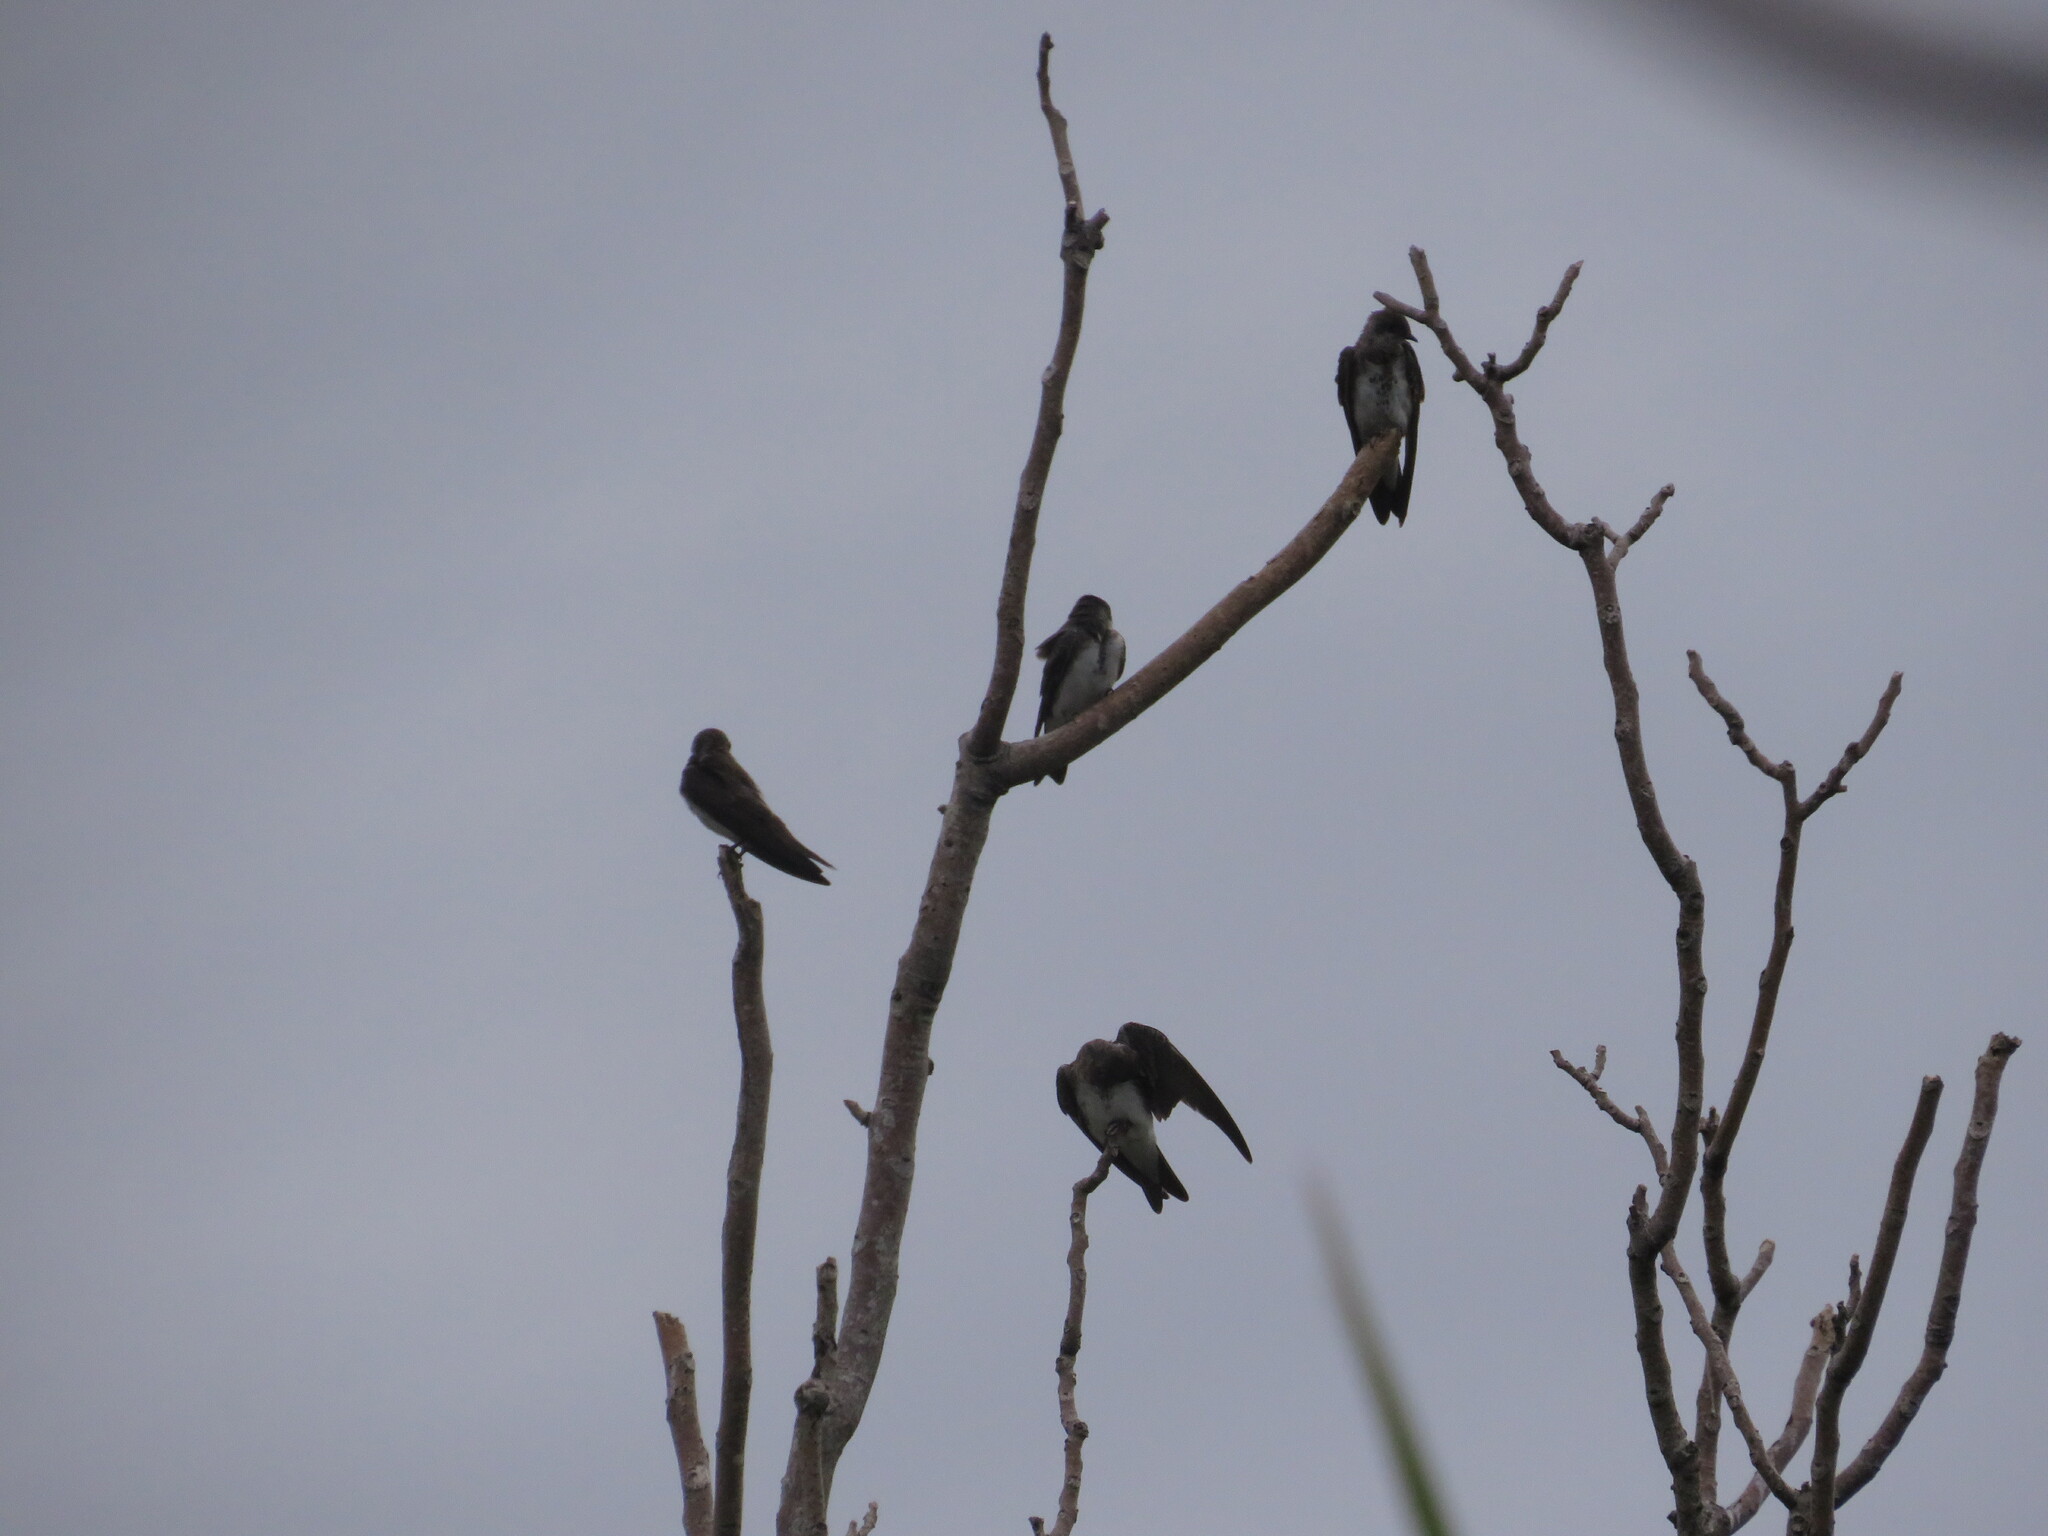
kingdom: Animalia
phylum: Chordata
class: Aves
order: Passeriformes
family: Hirundinidae
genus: Progne
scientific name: Progne tapera
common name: Brown-chested martin
